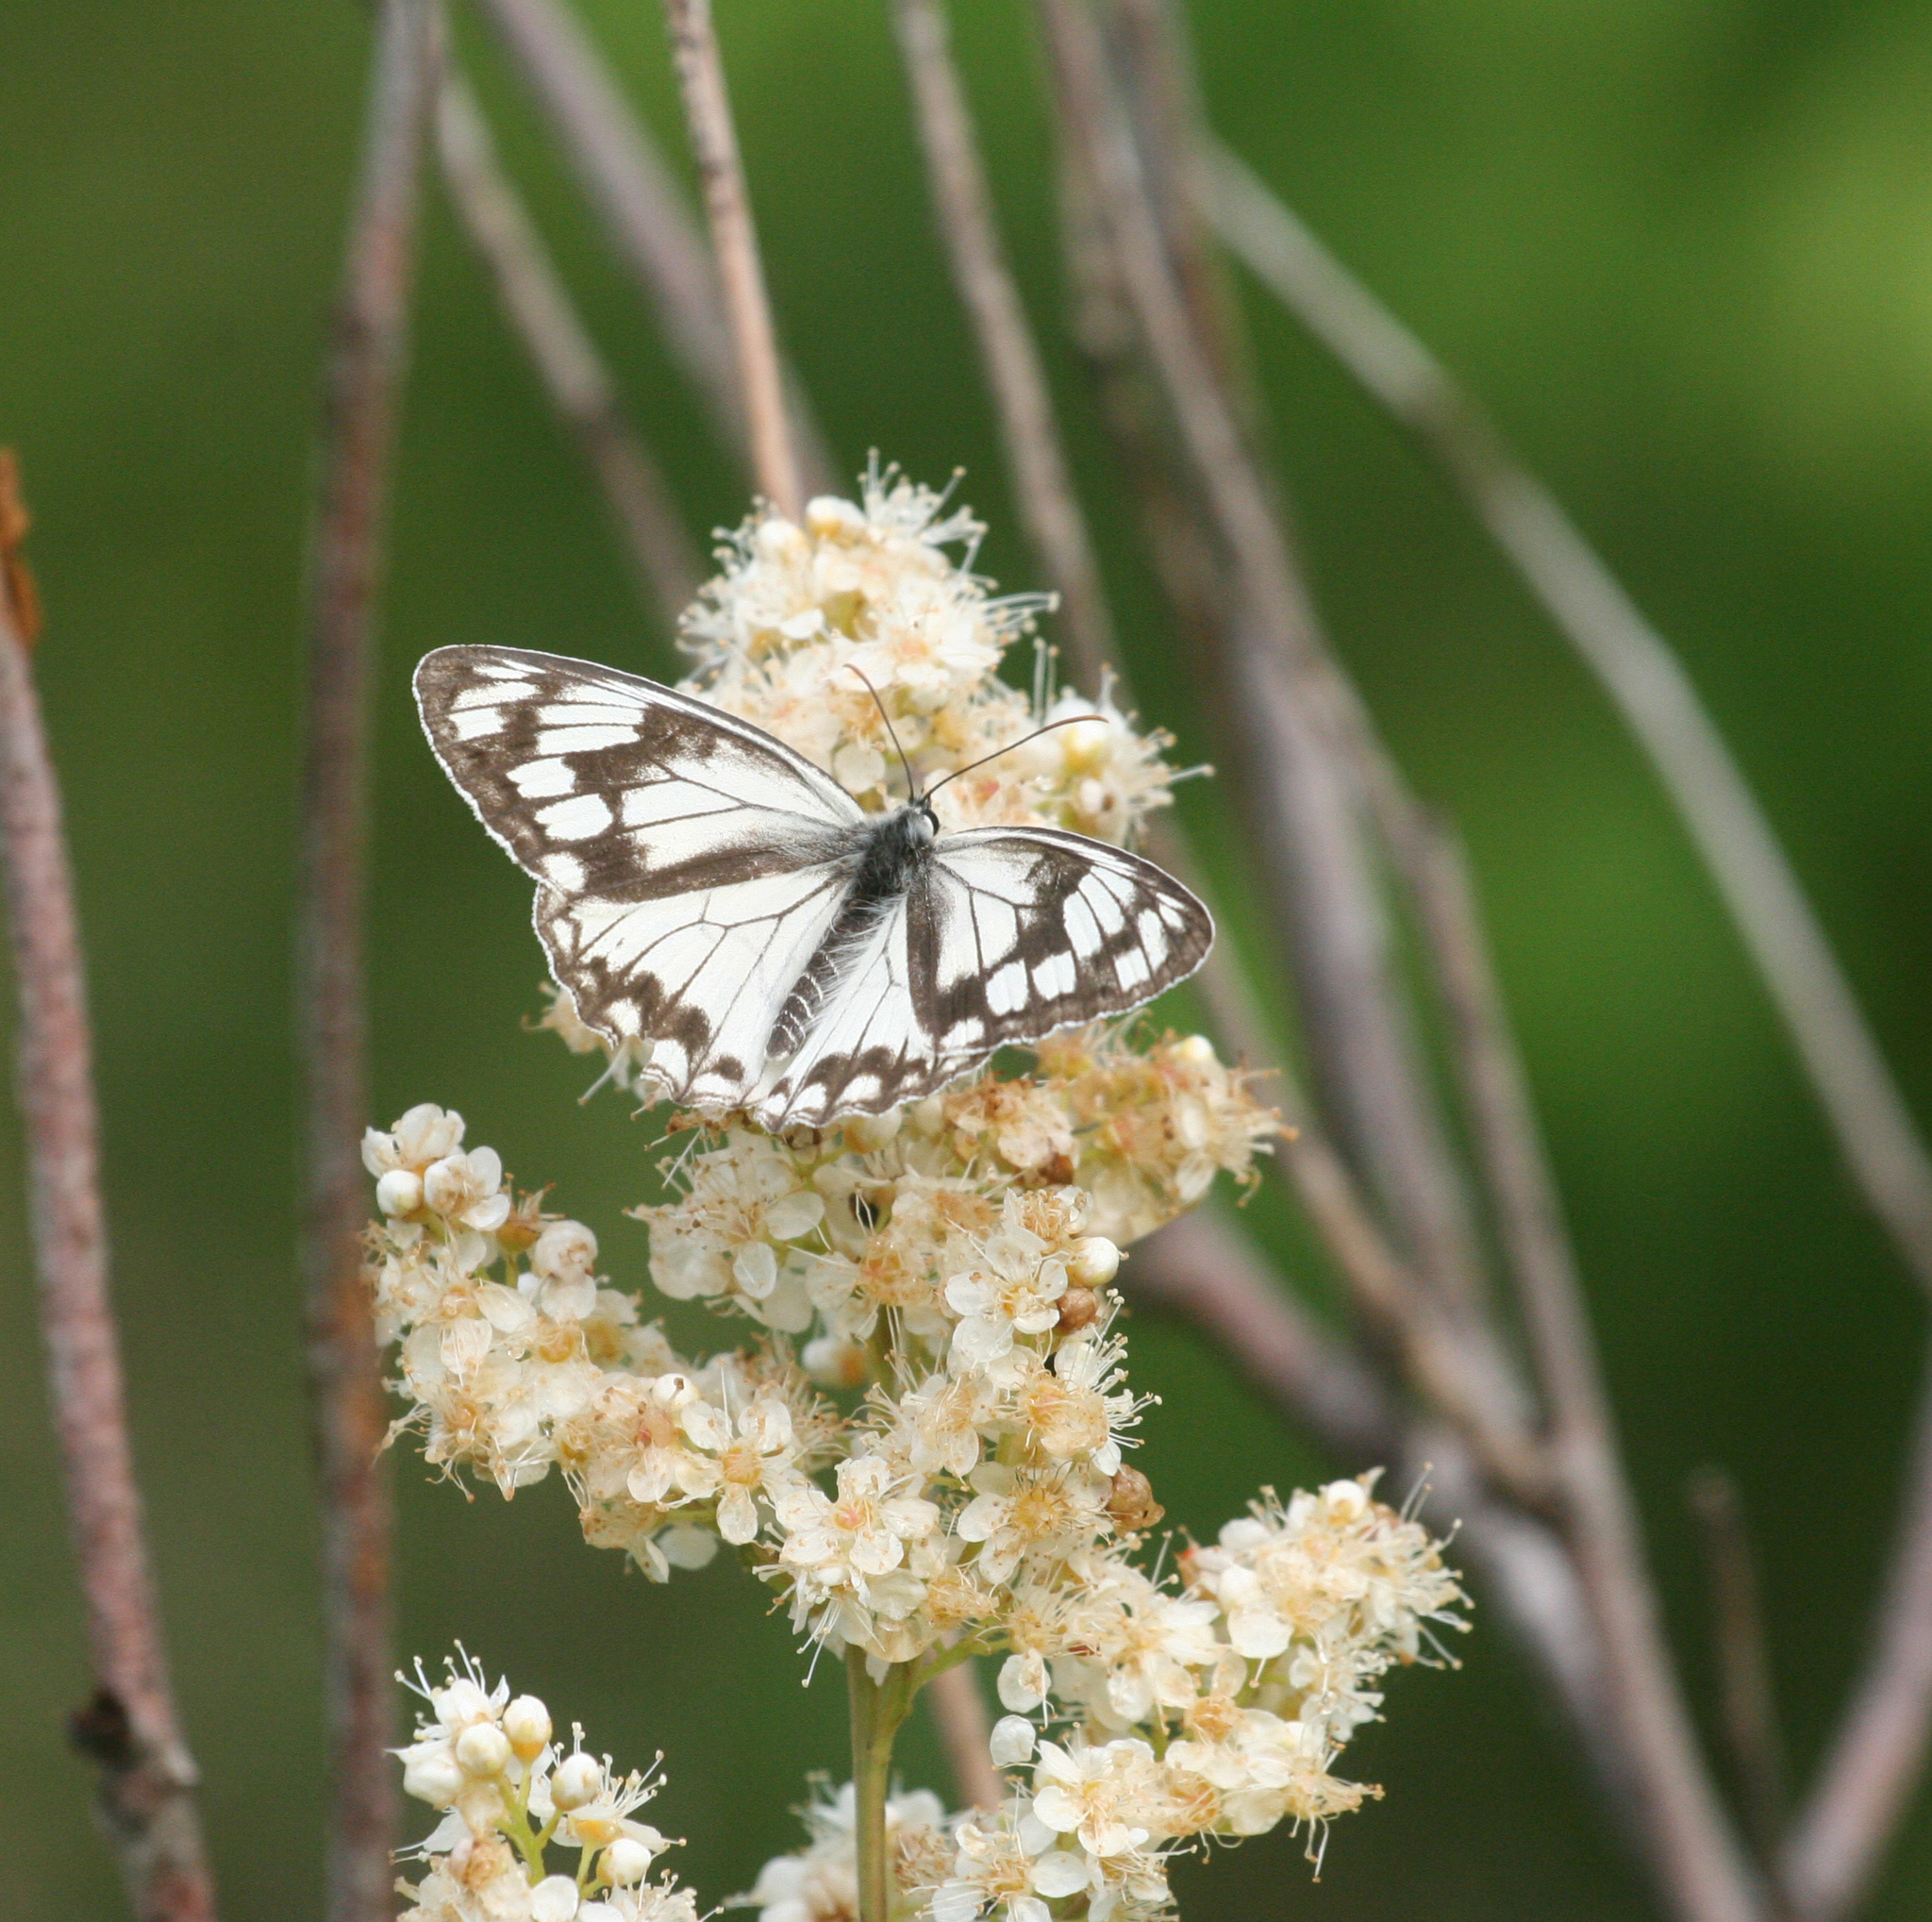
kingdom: Plantae
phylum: Tracheophyta
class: Magnoliopsida
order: Rosales
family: Rosaceae
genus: Sorbaria
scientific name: Sorbaria sorbifolia
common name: False spiraea
